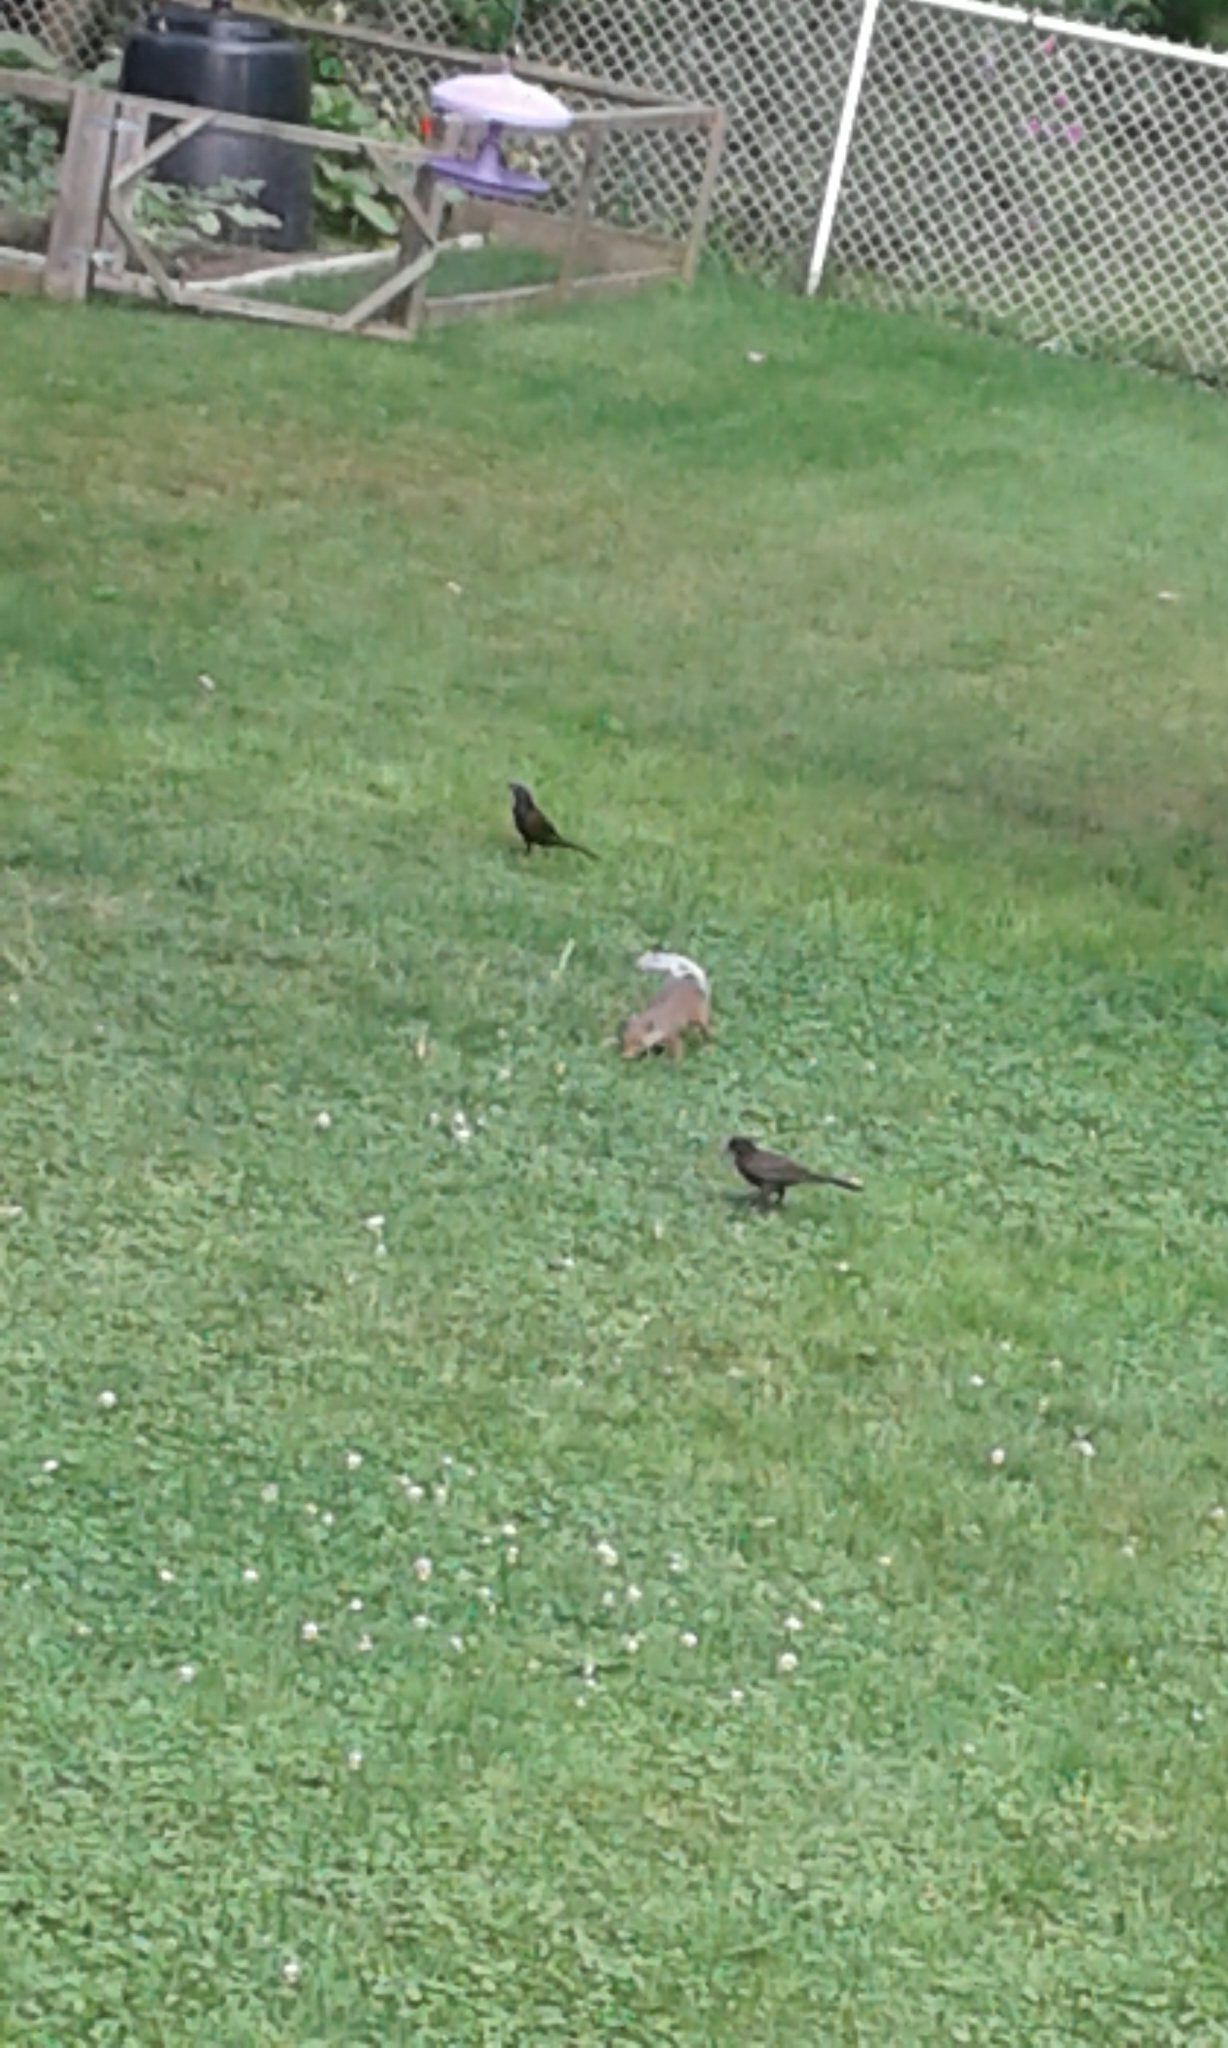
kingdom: Animalia
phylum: Chordata
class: Mammalia
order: Rodentia
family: Sciuridae
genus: Sciurus
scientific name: Sciurus carolinensis
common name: Eastern gray squirrel
